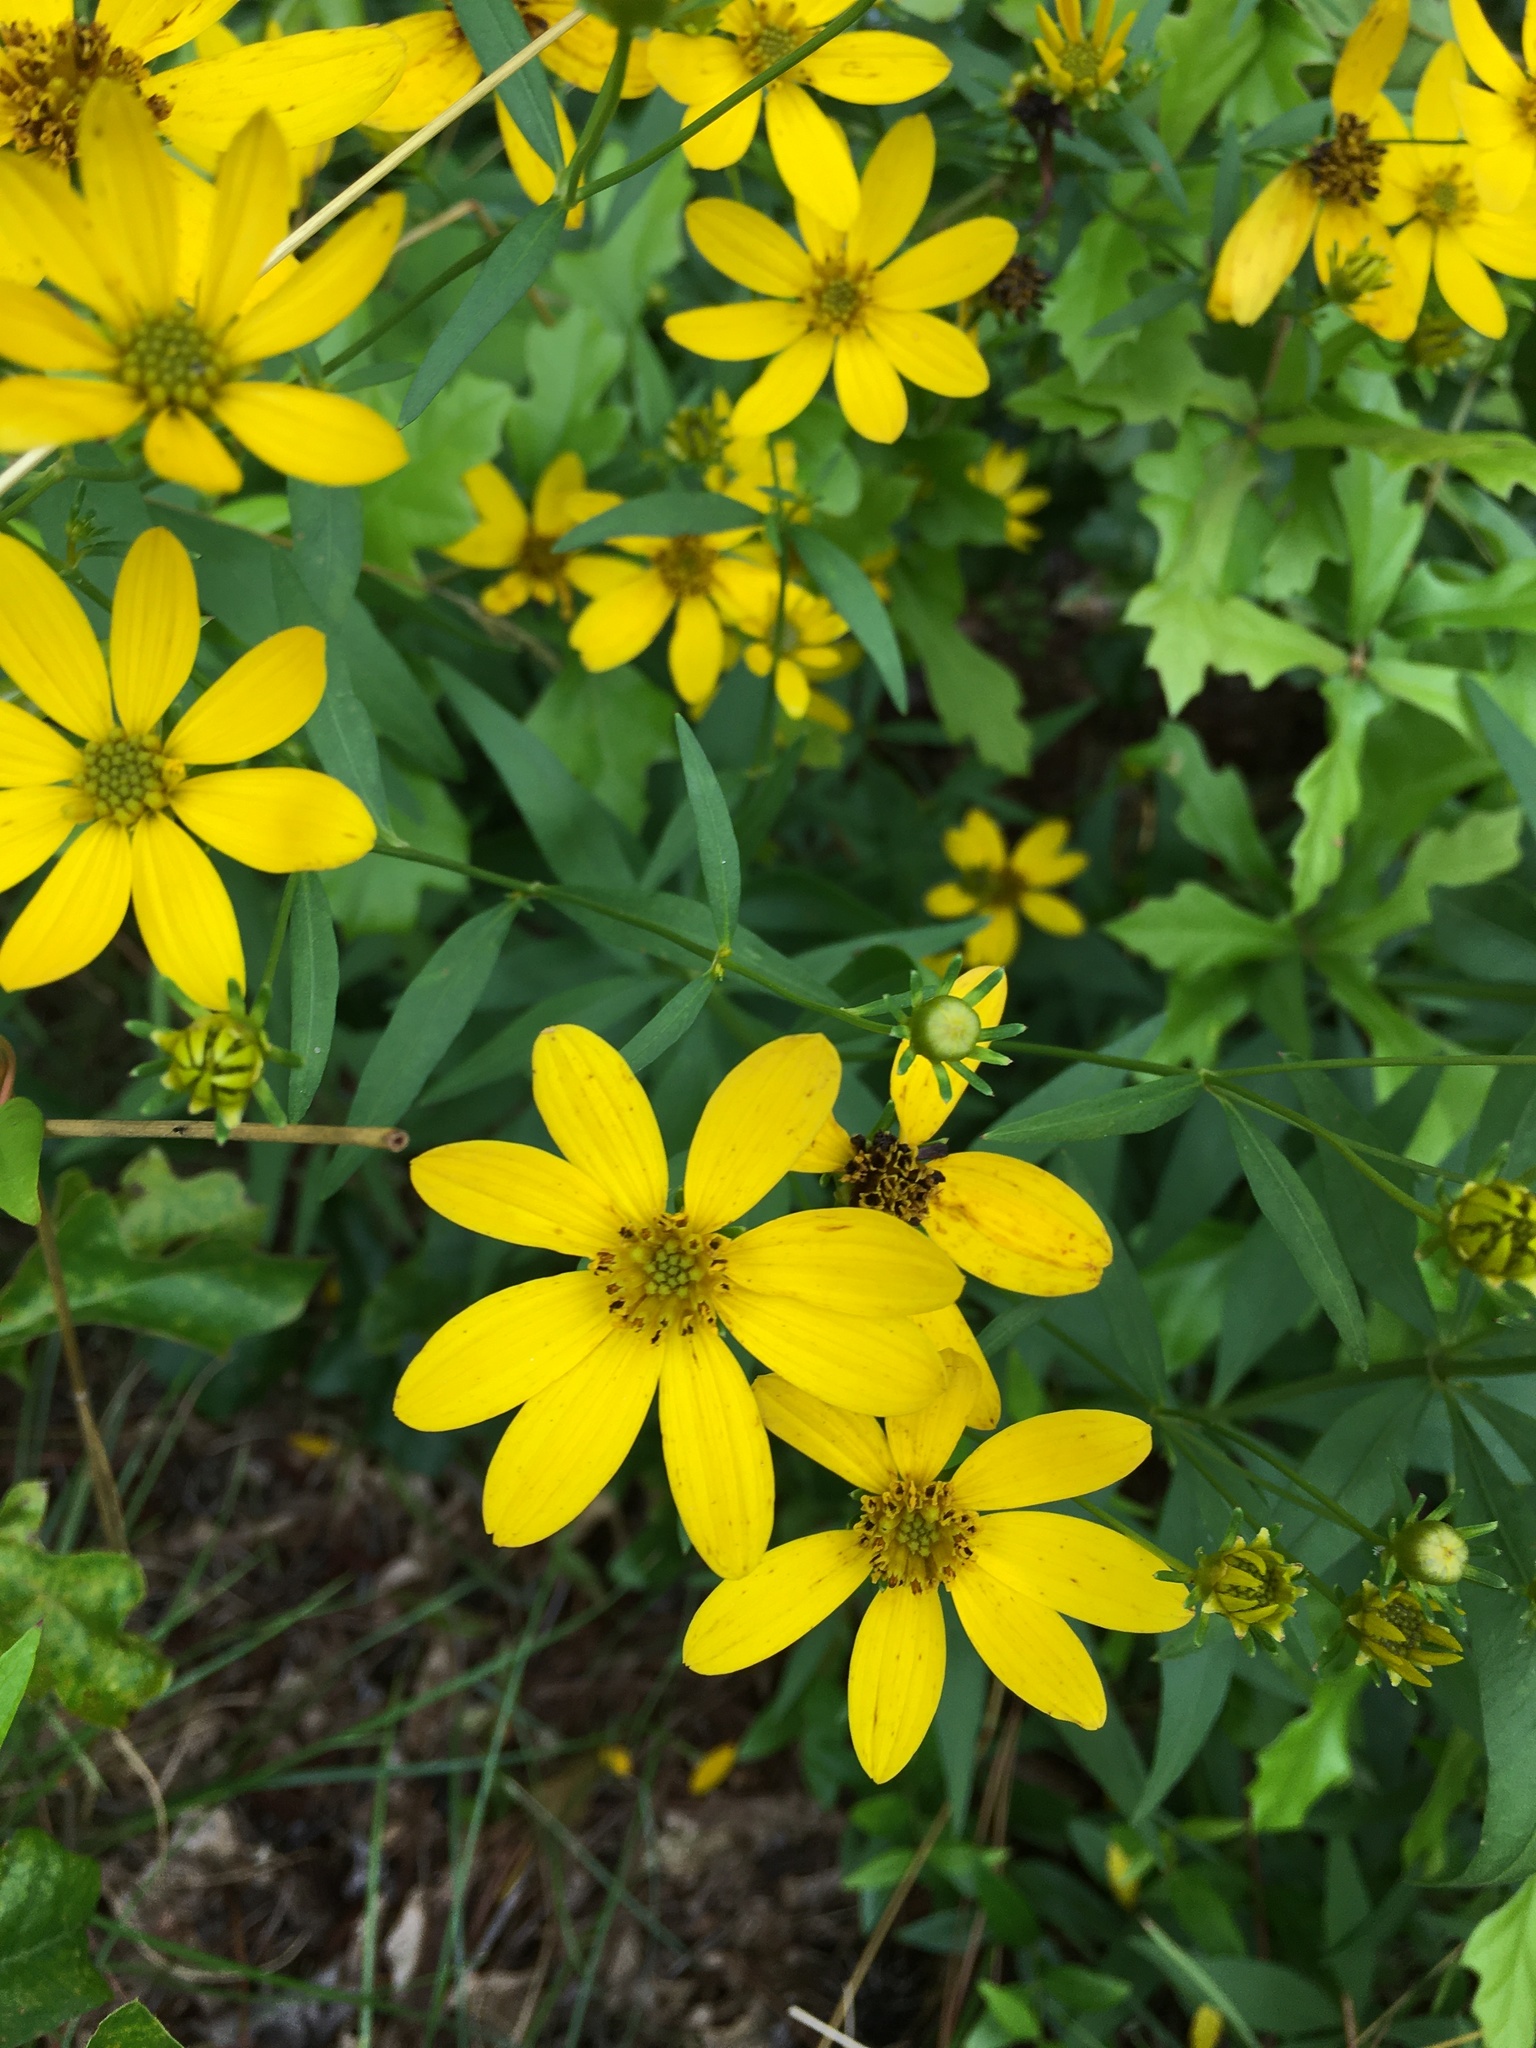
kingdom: Plantae
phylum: Tracheophyta
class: Magnoliopsida
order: Asterales
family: Asteraceae
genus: Coreopsis
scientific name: Coreopsis major
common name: Forest tickseed
